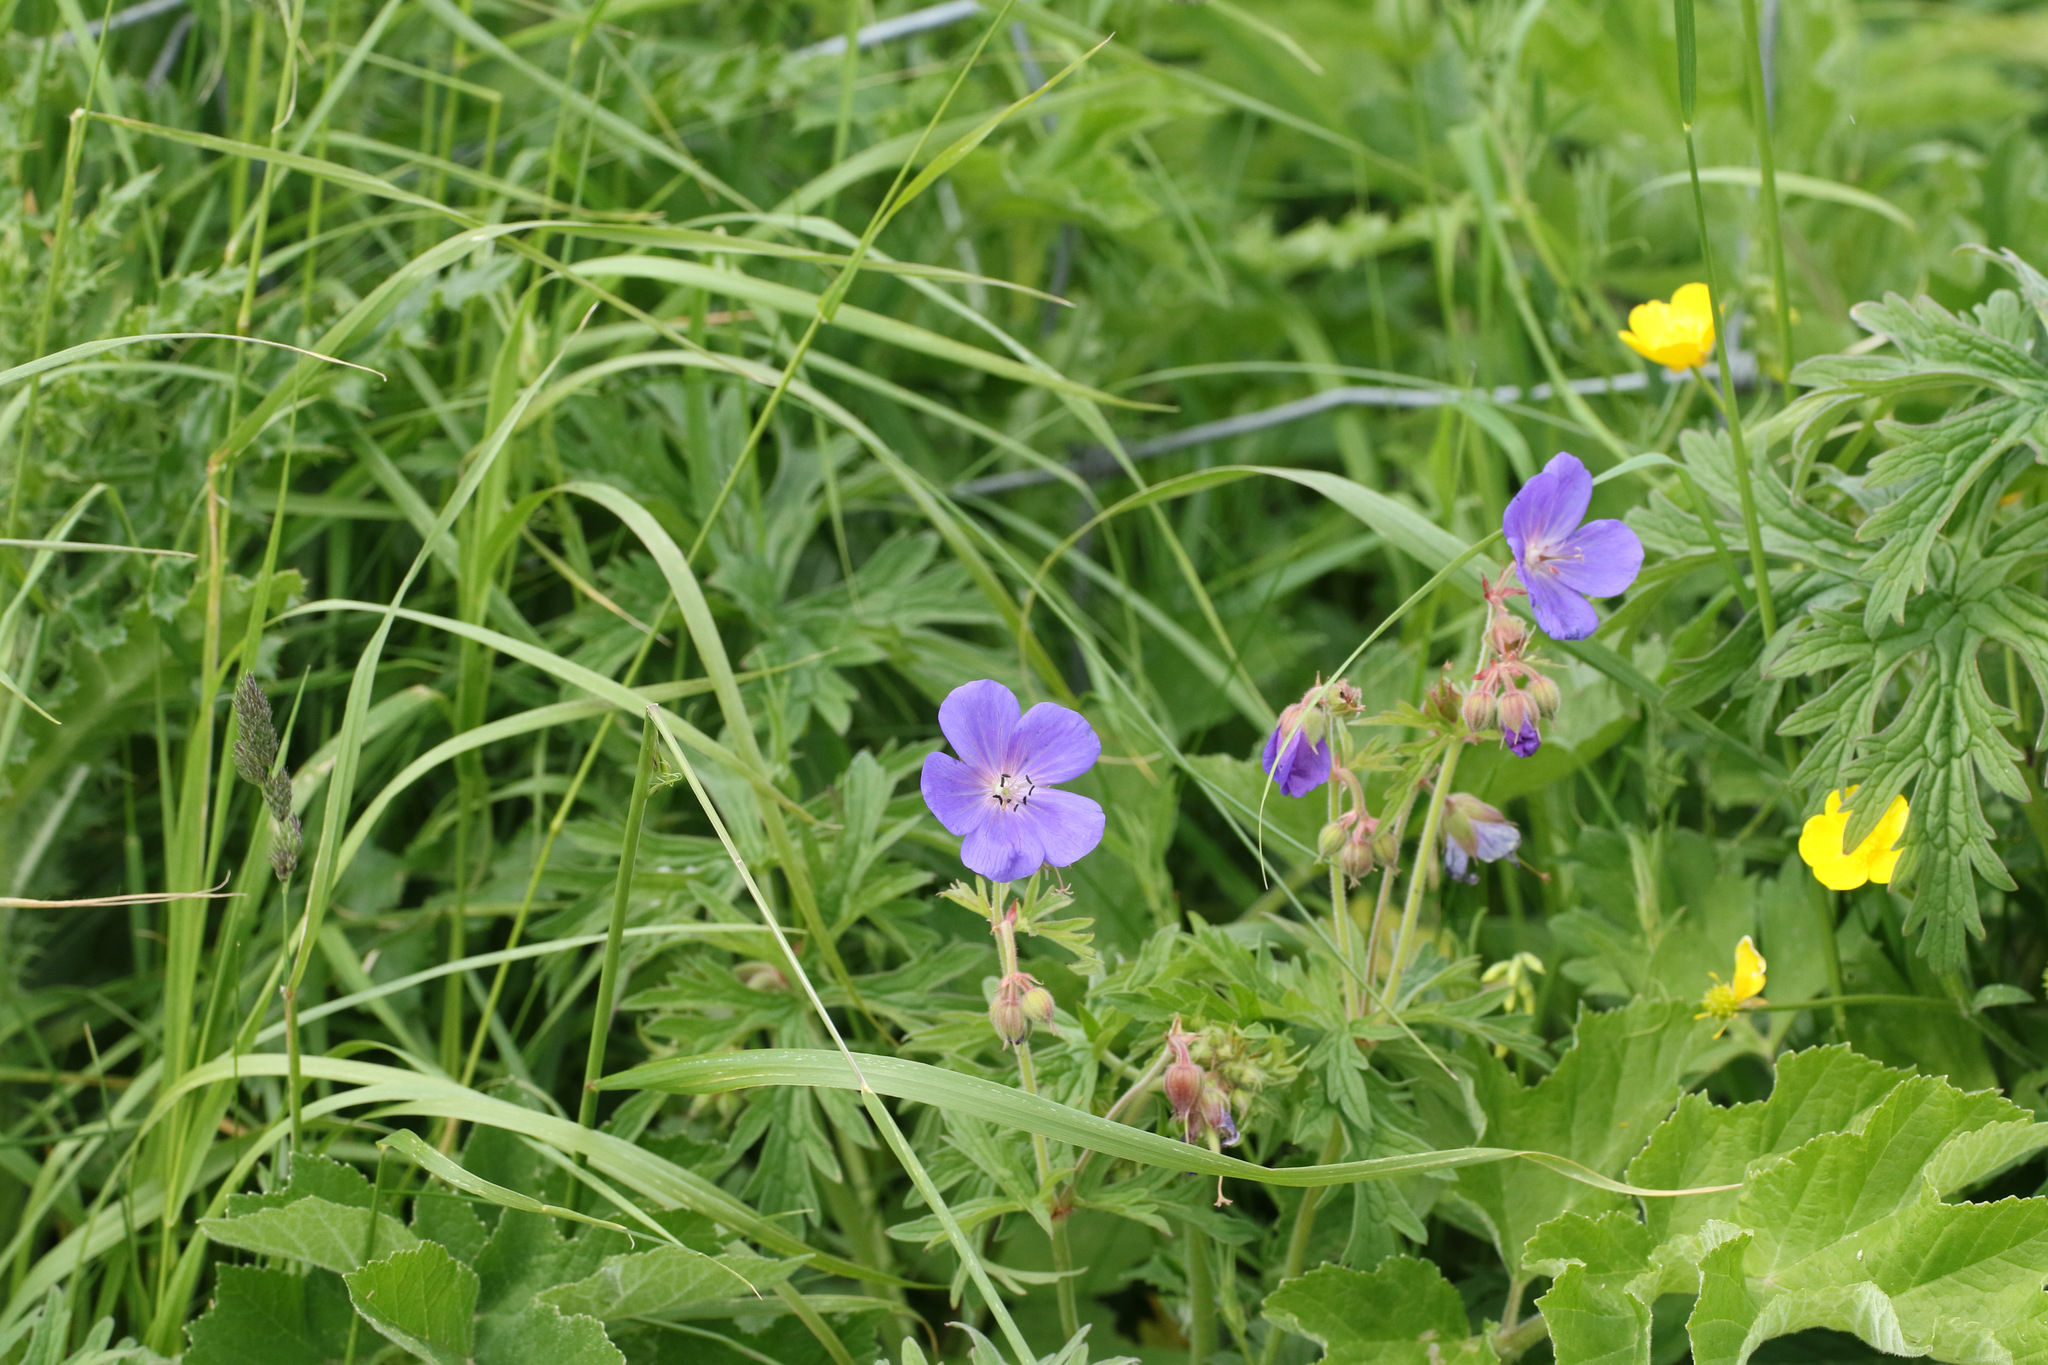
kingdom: Plantae
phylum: Tracheophyta
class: Magnoliopsida
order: Geraniales
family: Geraniaceae
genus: Geranium
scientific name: Geranium pratense
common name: Meadow crane's-bill
